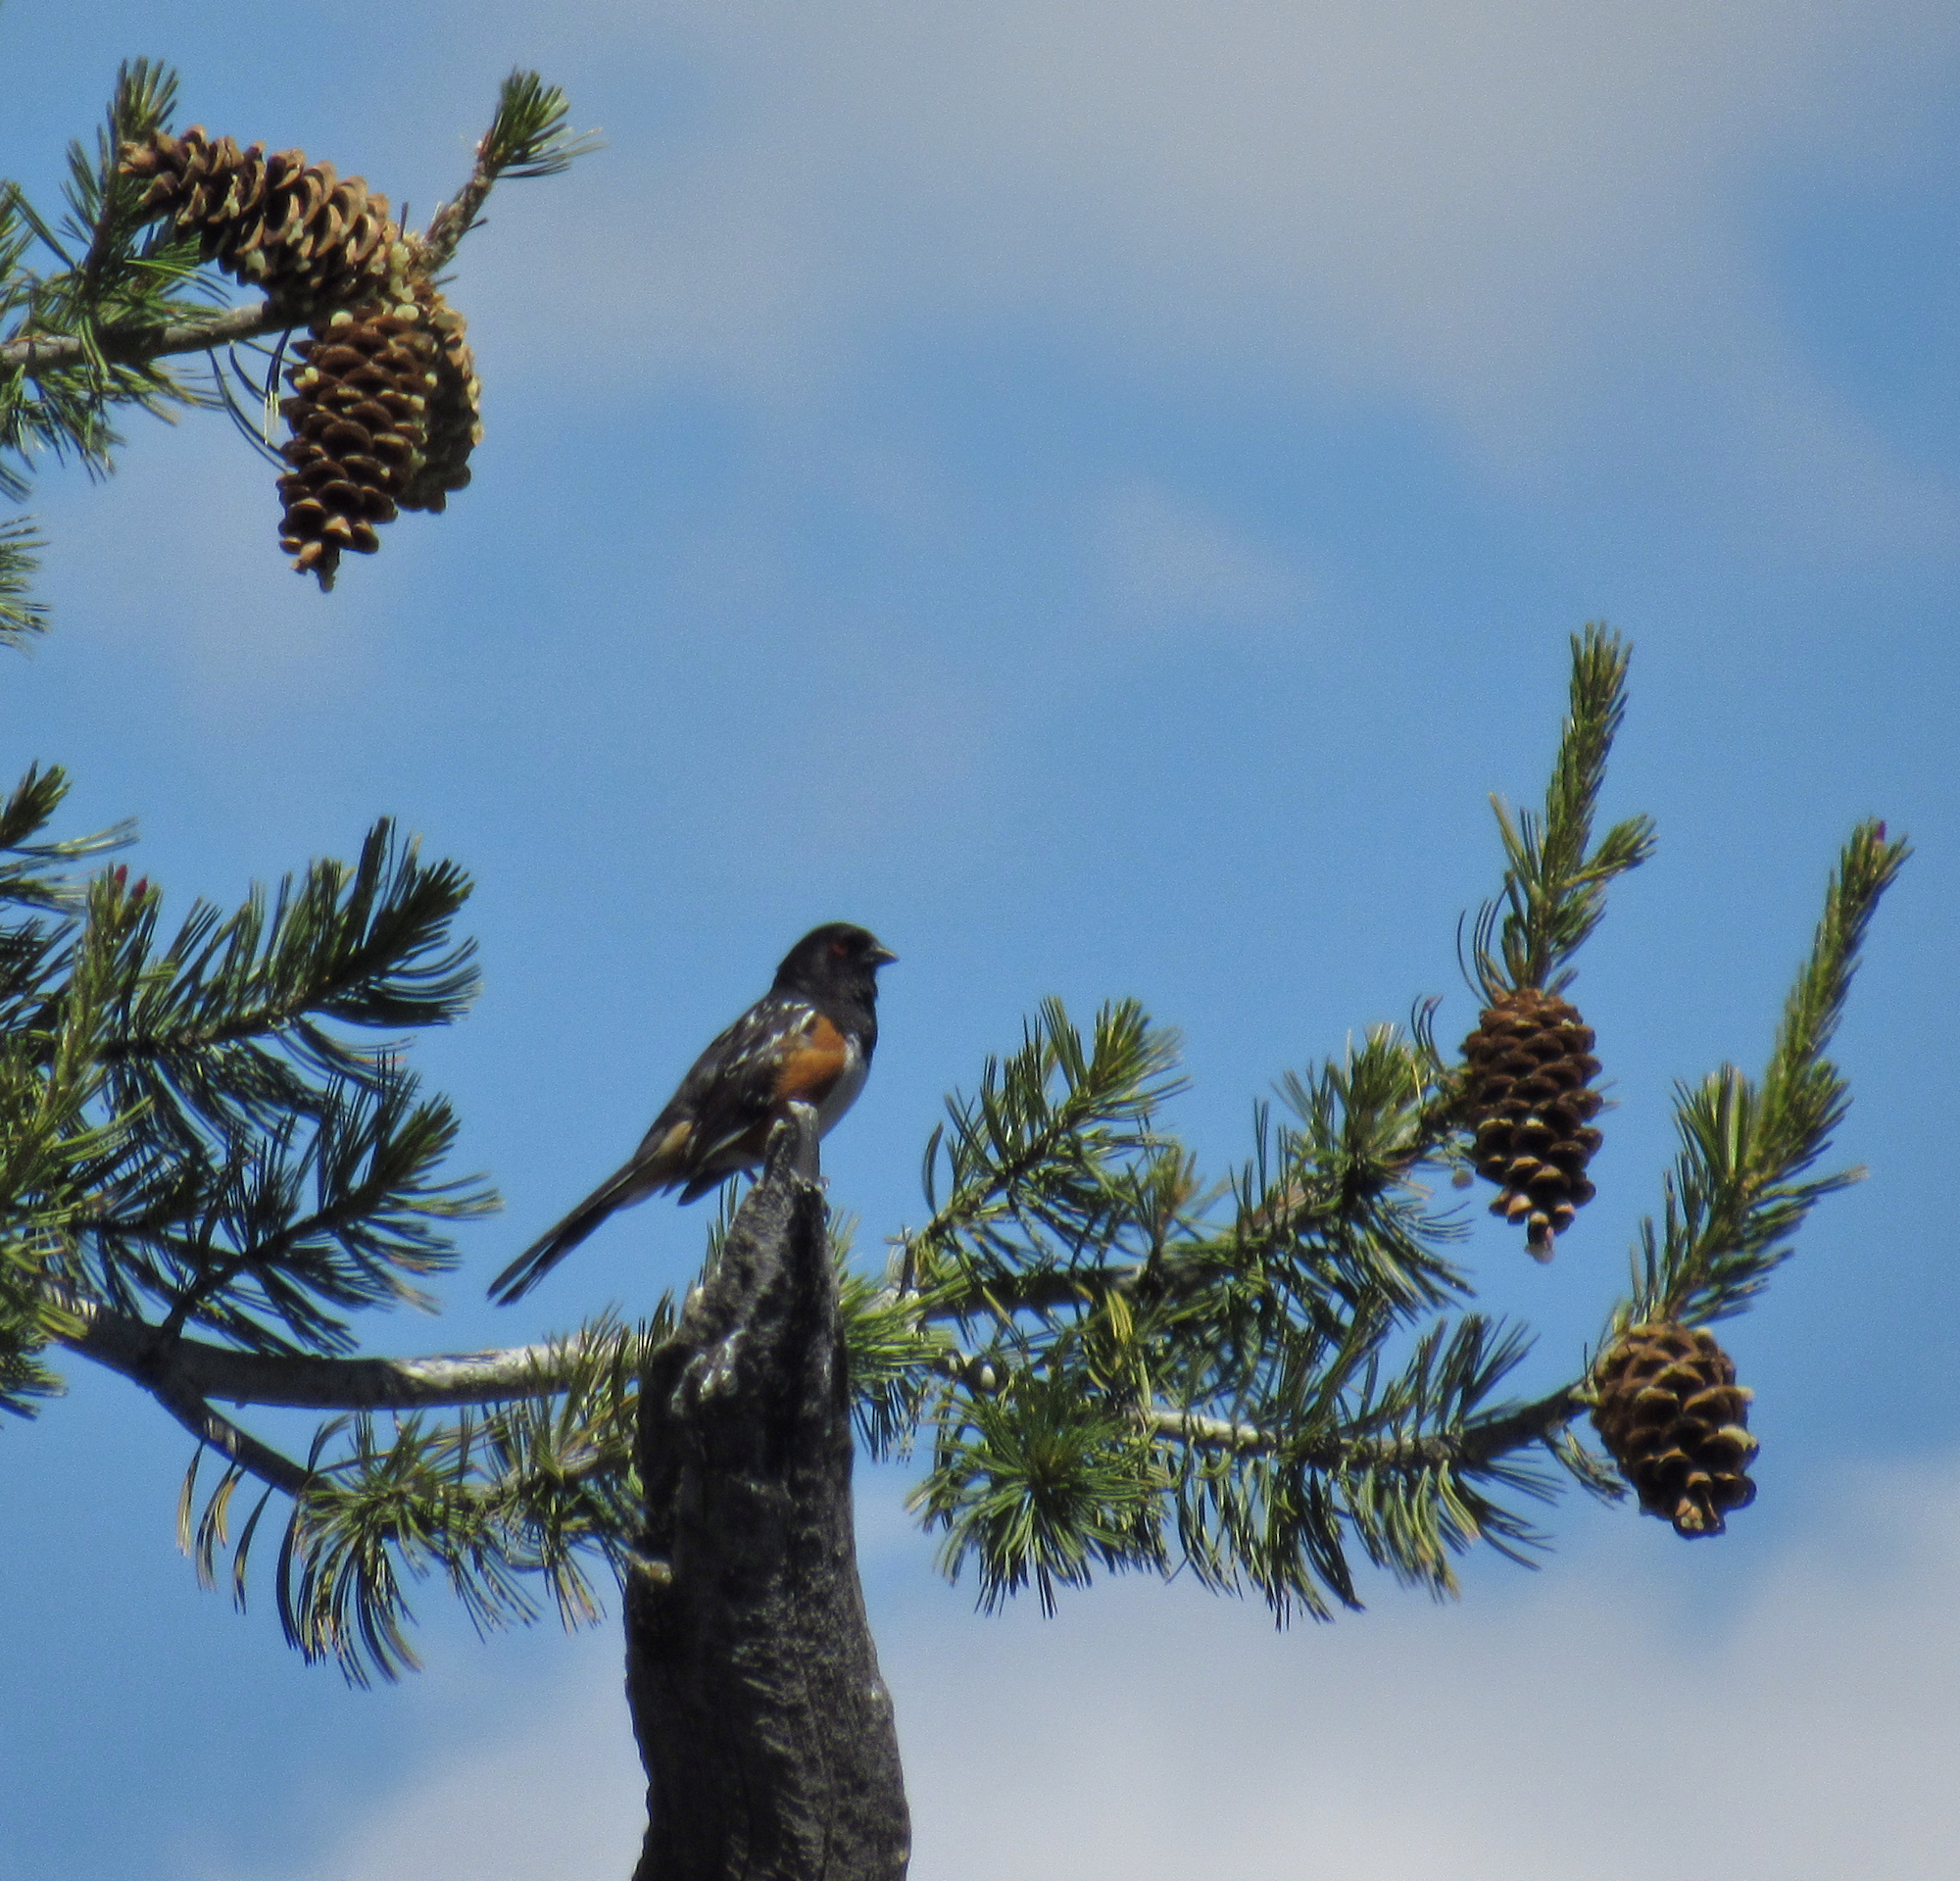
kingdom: Animalia
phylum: Chordata
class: Aves
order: Passeriformes
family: Passerellidae
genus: Pipilo
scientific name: Pipilo maculatus
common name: Spotted towhee
